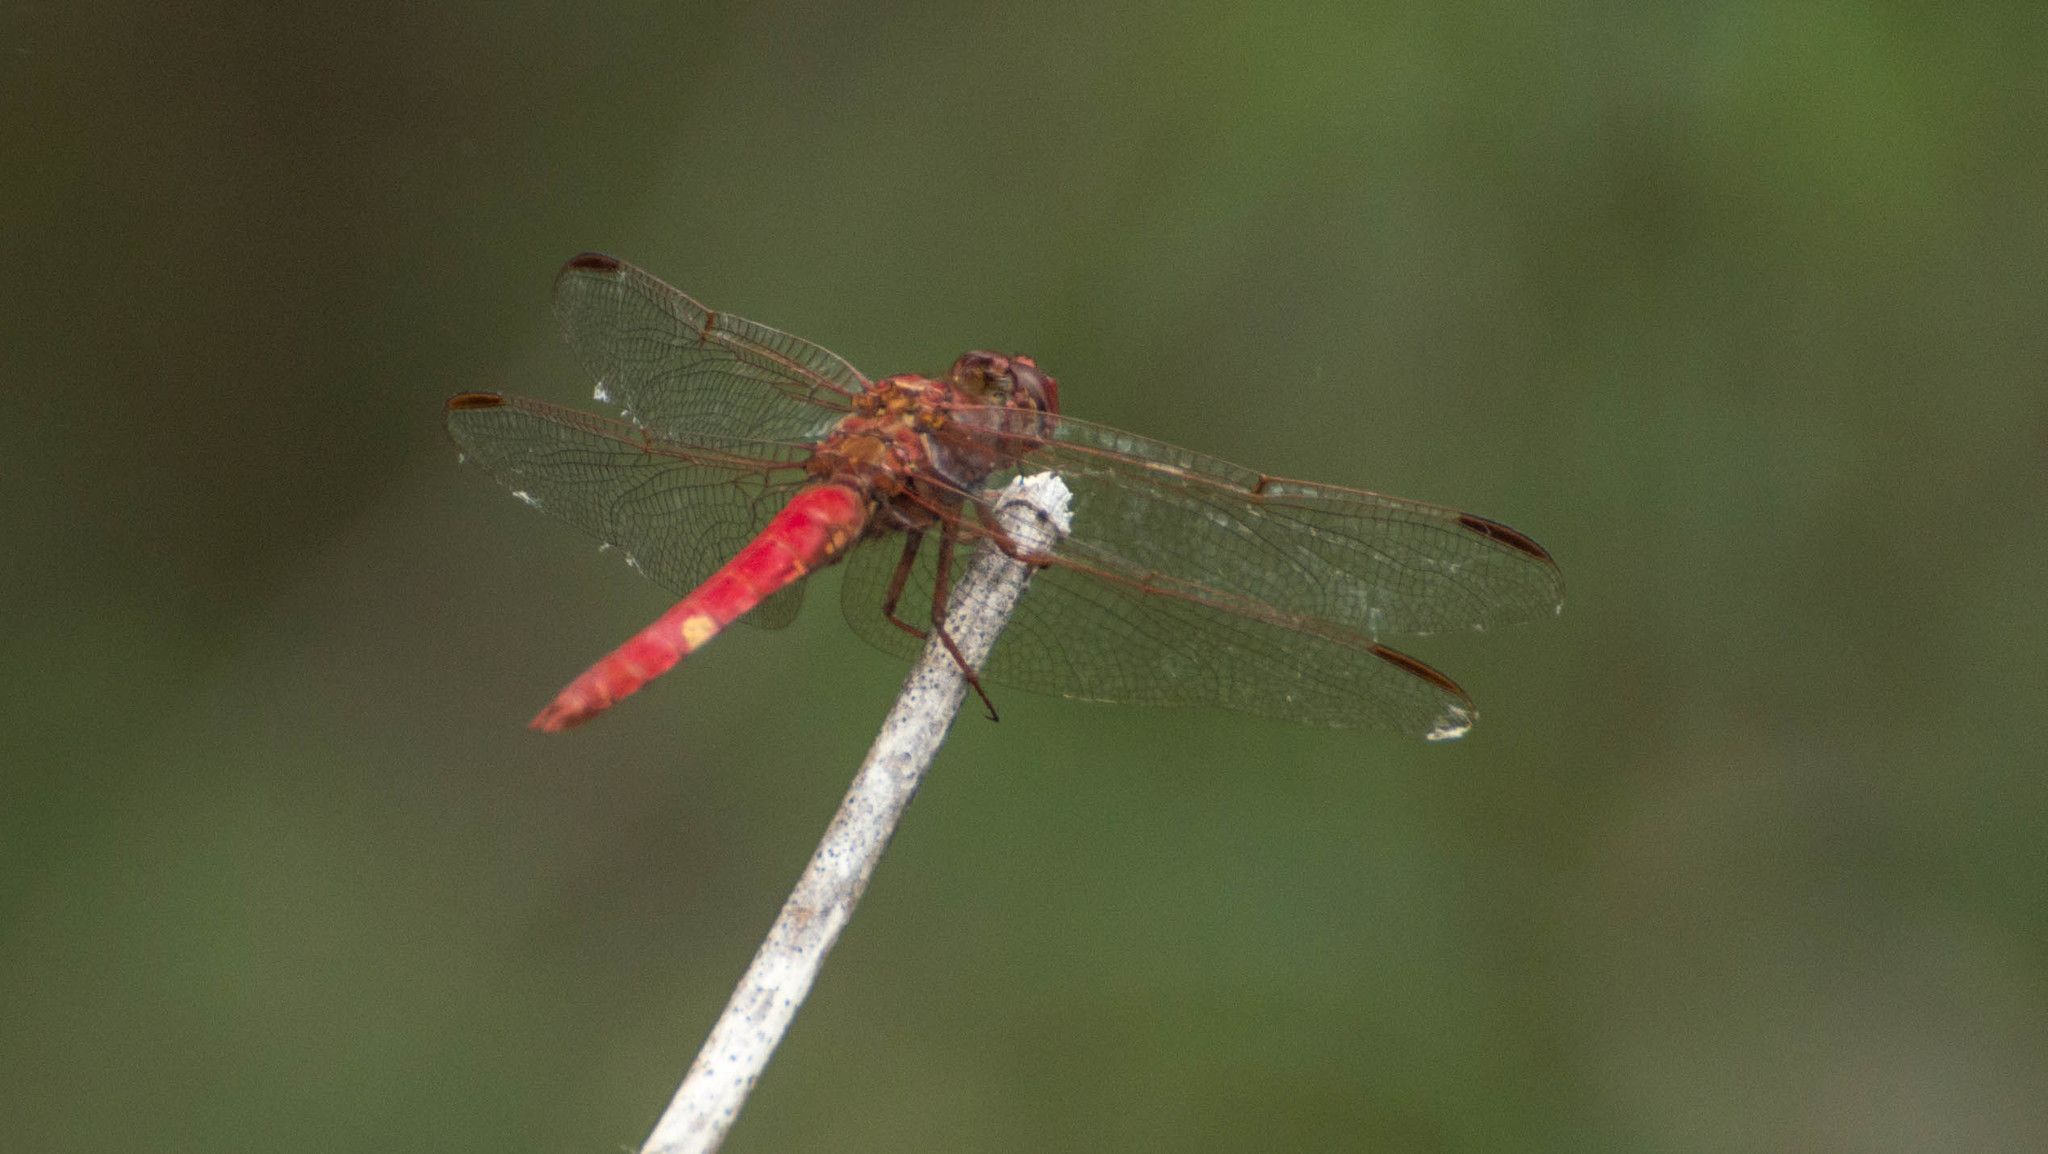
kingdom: Animalia
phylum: Arthropoda
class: Insecta
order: Odonata
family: Libellulidae
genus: Orthemis
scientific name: Orthemis nodiplaga
